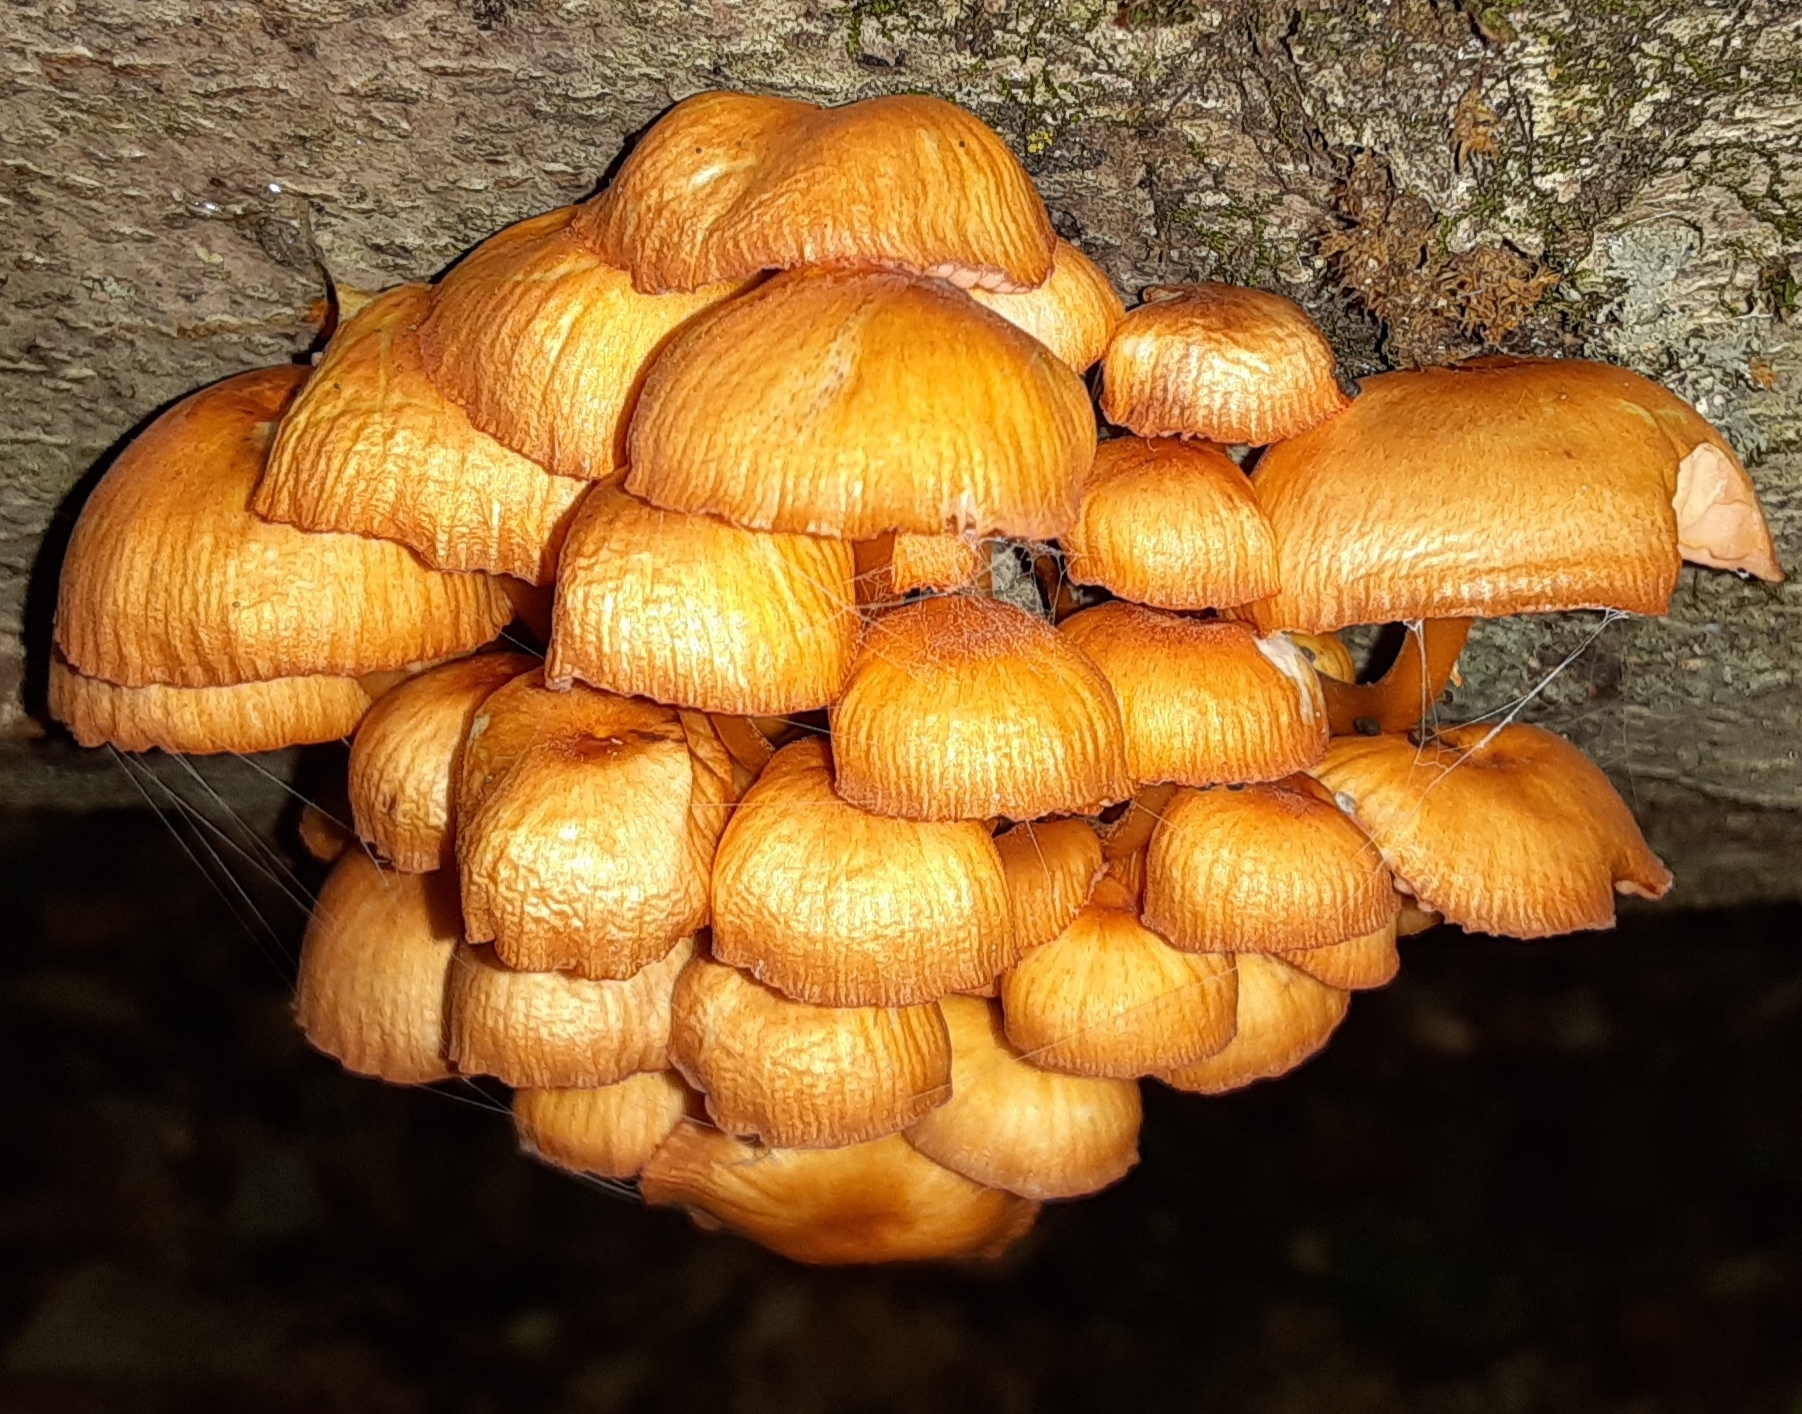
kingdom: Fungi
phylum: Basidiomycota
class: Agaricomycetes
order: Agaricales
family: Mycenaceae
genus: Mycena
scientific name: Mycena leaiana
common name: Orange mycena
